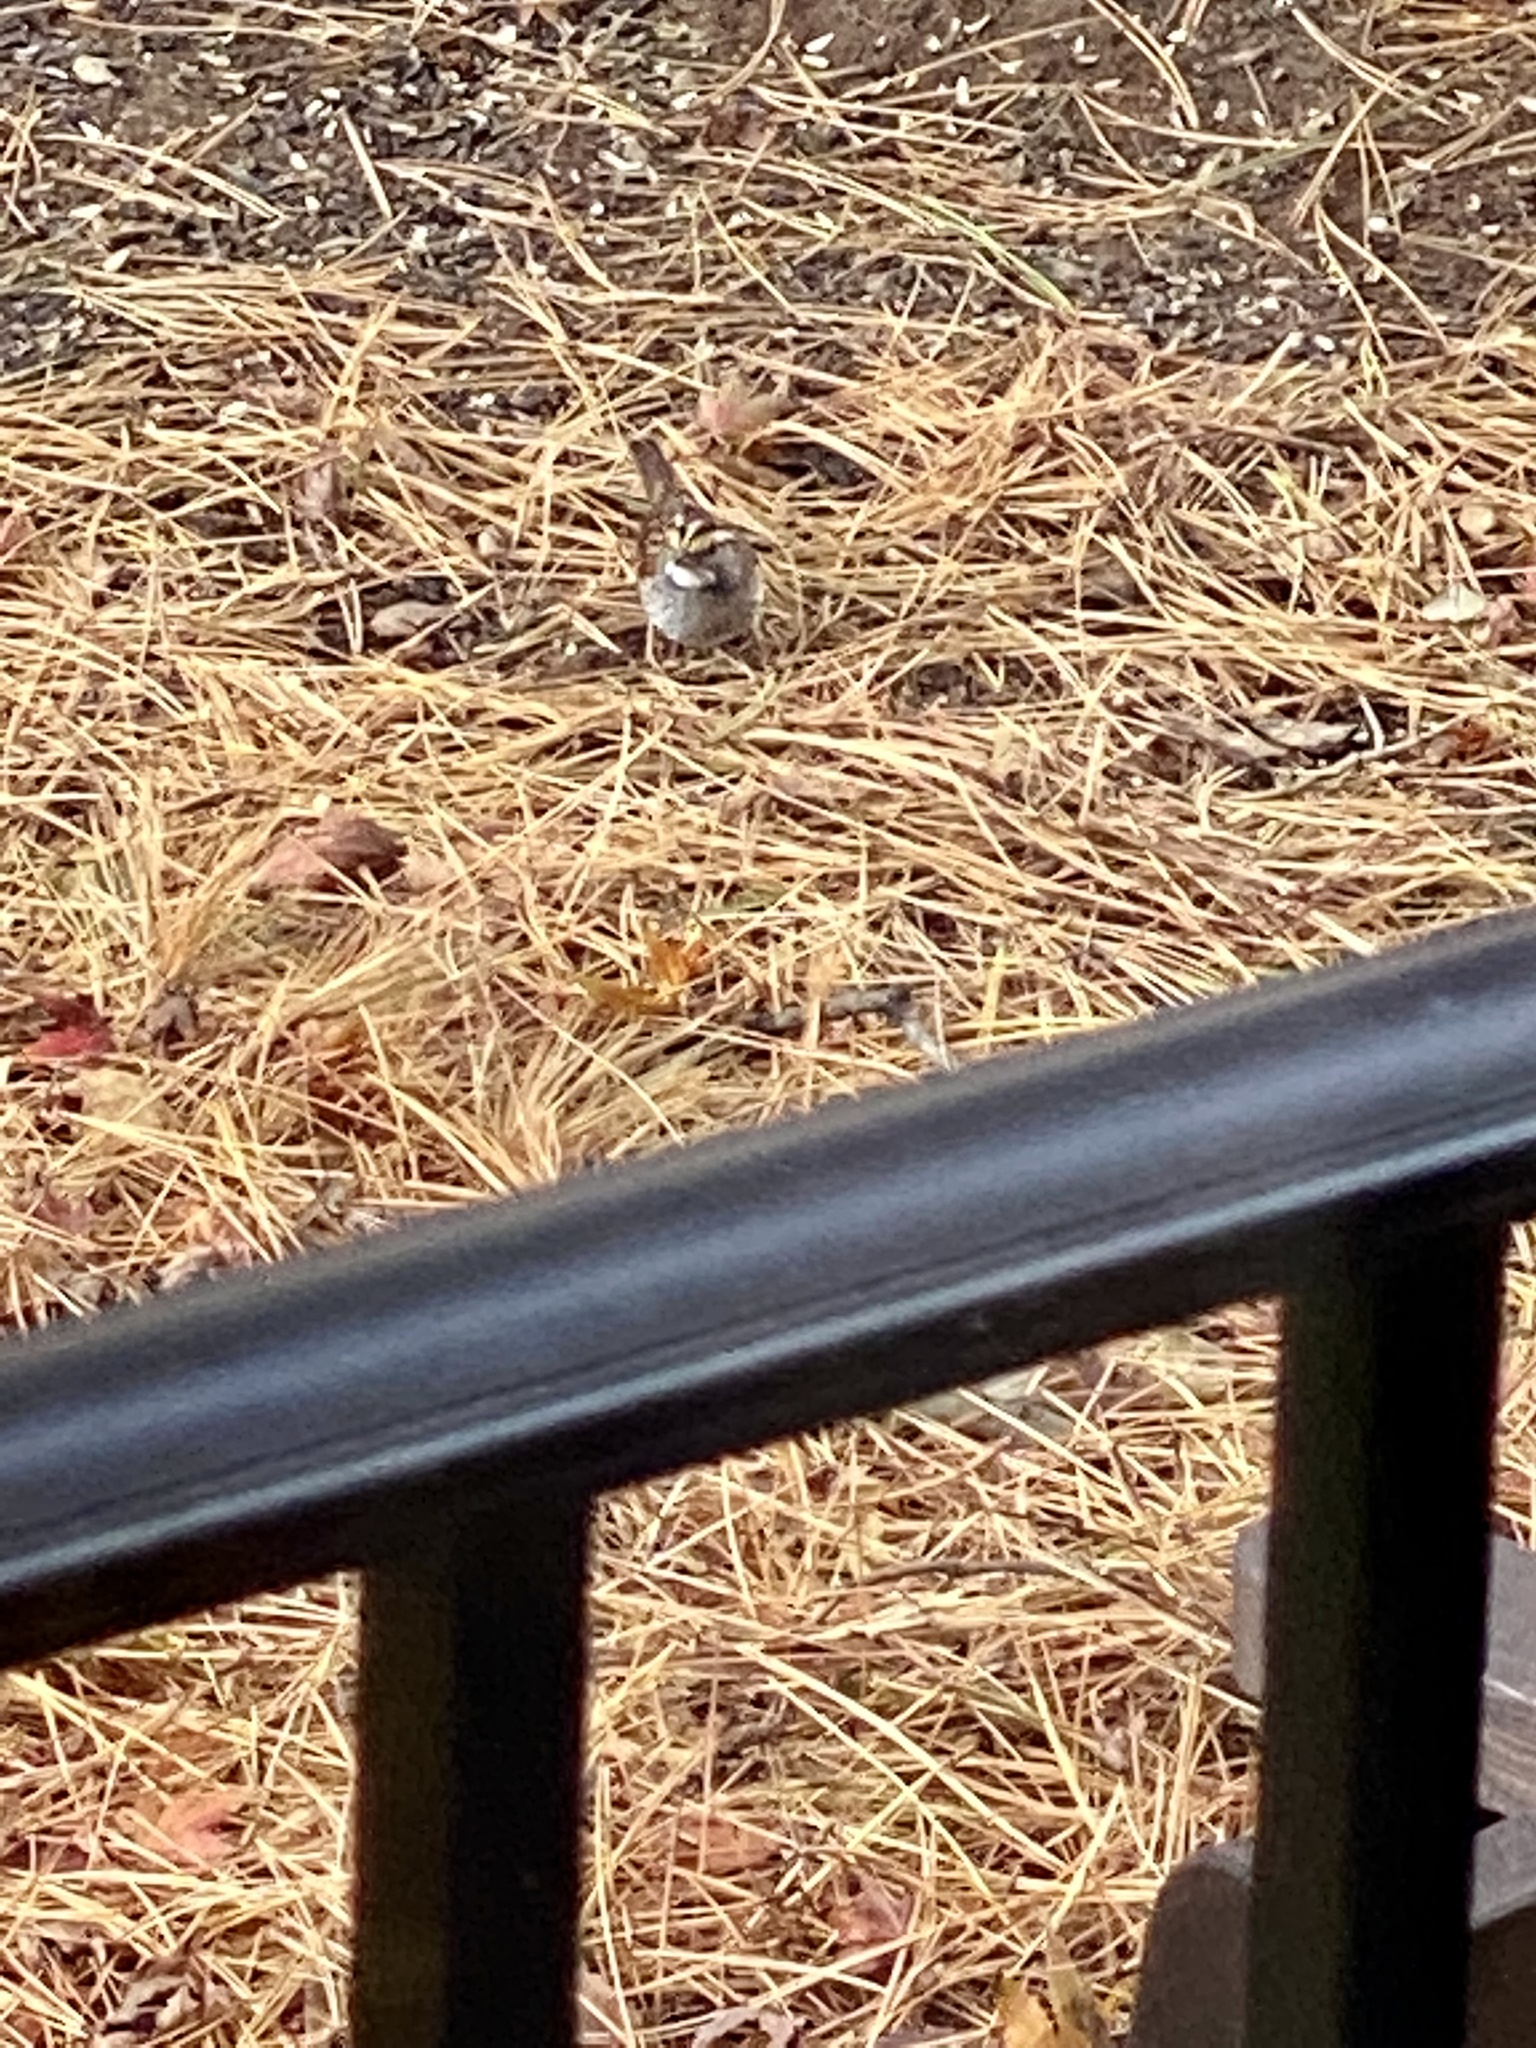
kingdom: Animalia
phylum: Chordata
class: Aves
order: Passeriformes
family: Passerellidae
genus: Zonotrichia
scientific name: Zonotrichia albicollis
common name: White-throated sparrow
